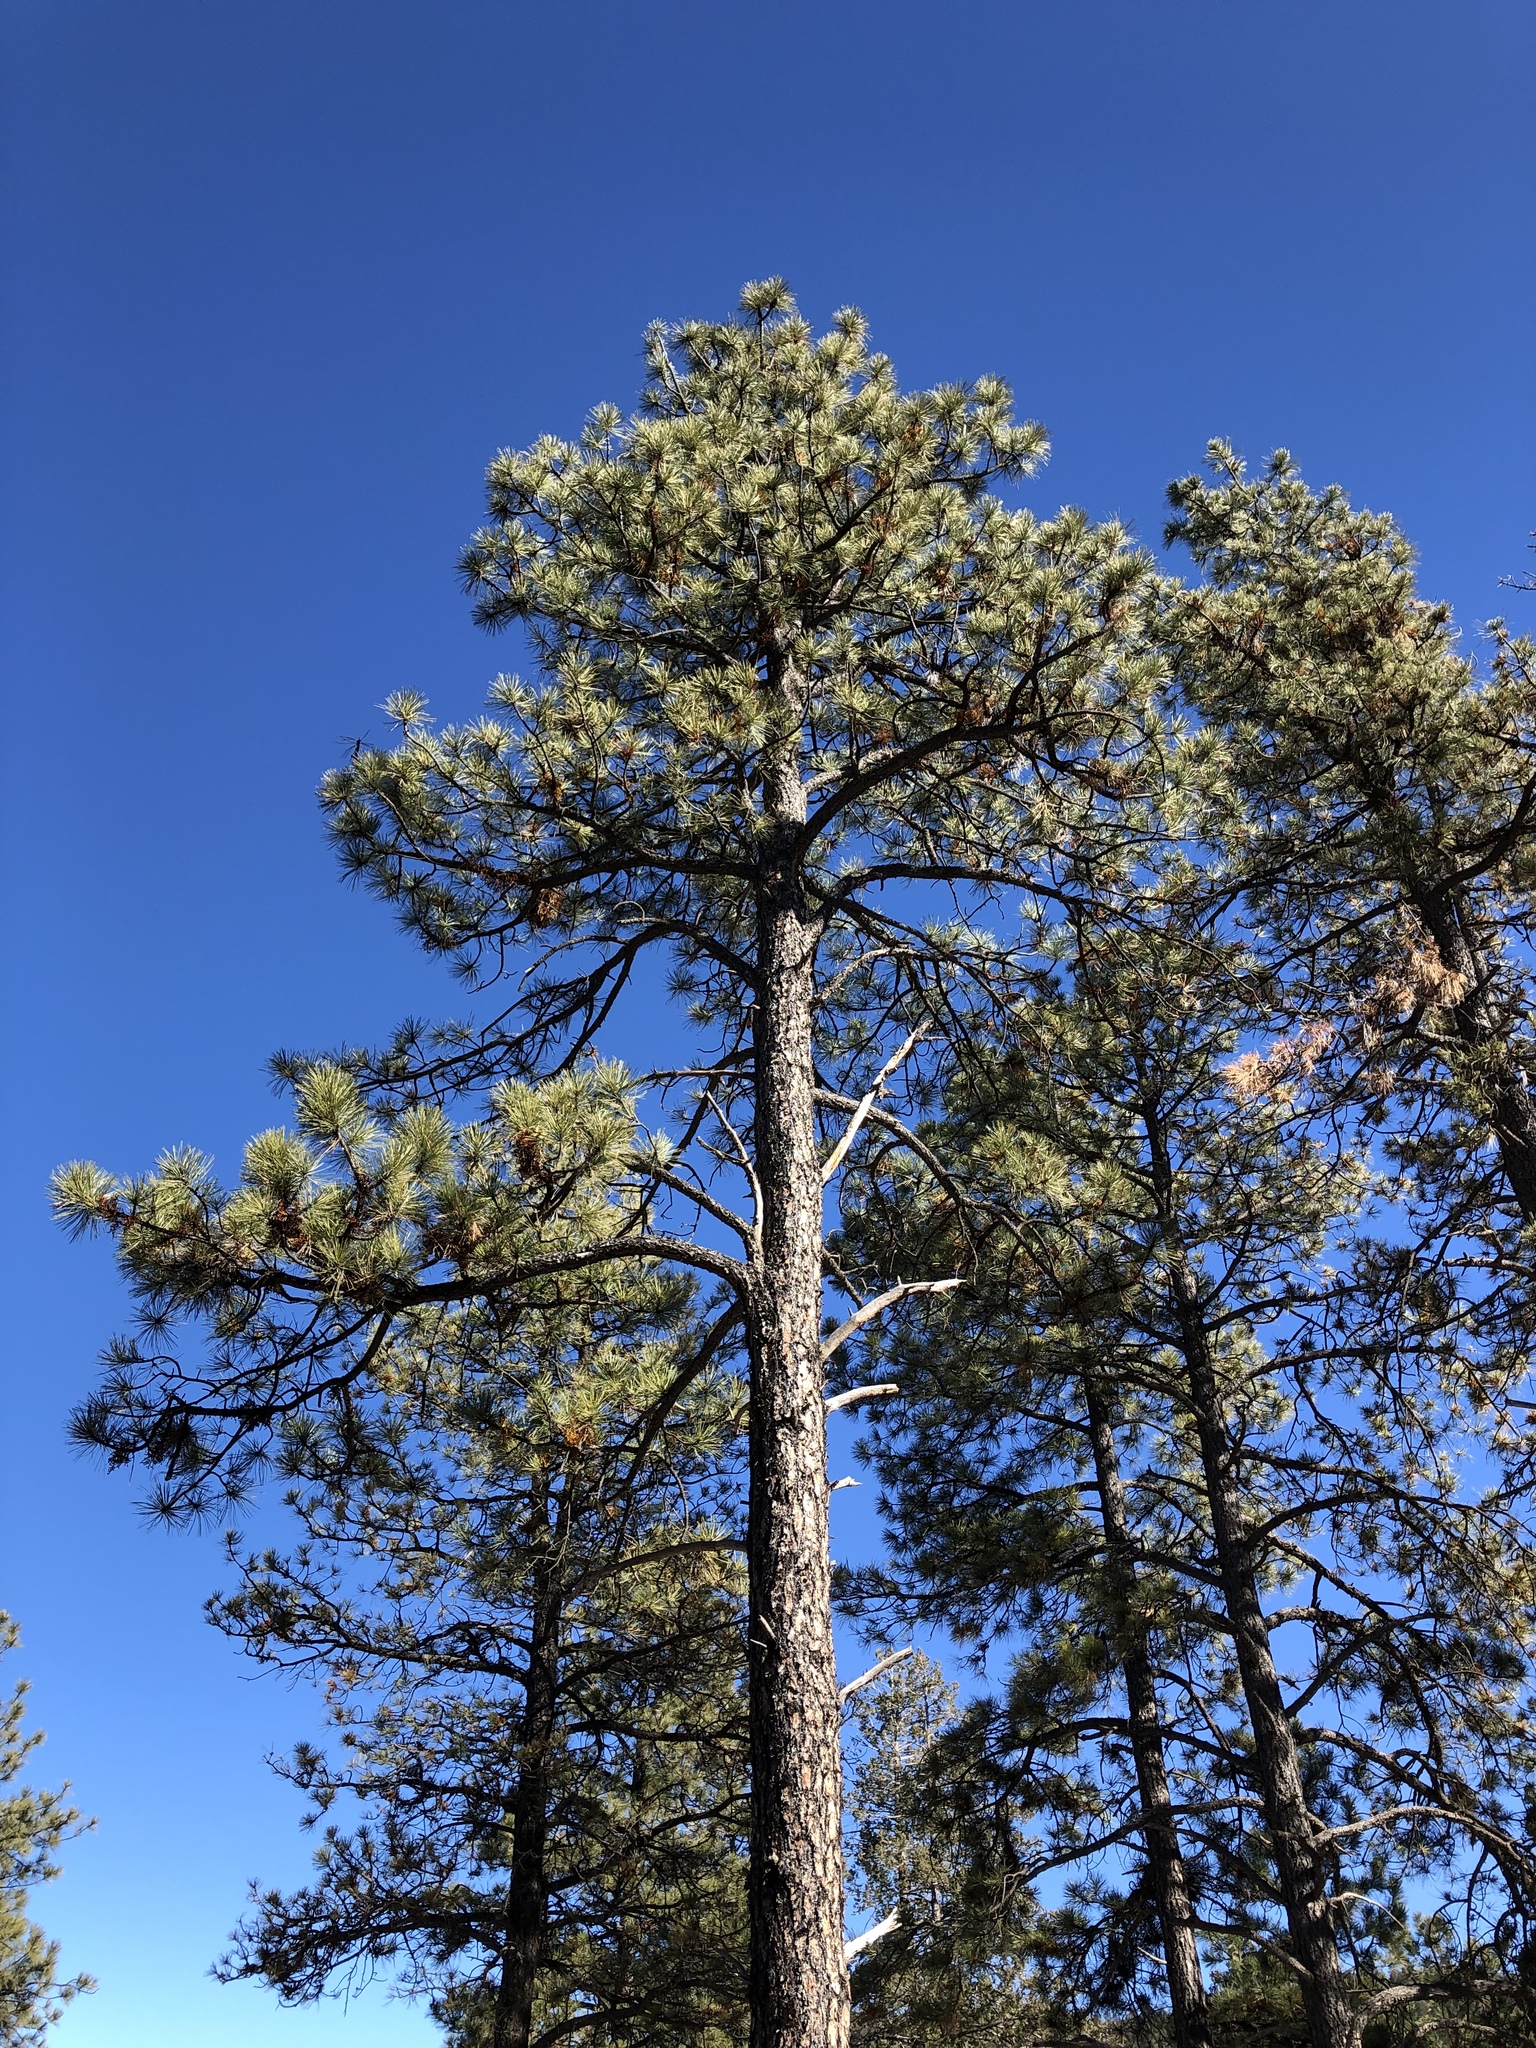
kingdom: Plantae
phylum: Tracheophyta
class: Pinopsida
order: Pinales
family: Pinaceae
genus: Pinus
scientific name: Pinus ponderosa
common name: Western yellow-pine
